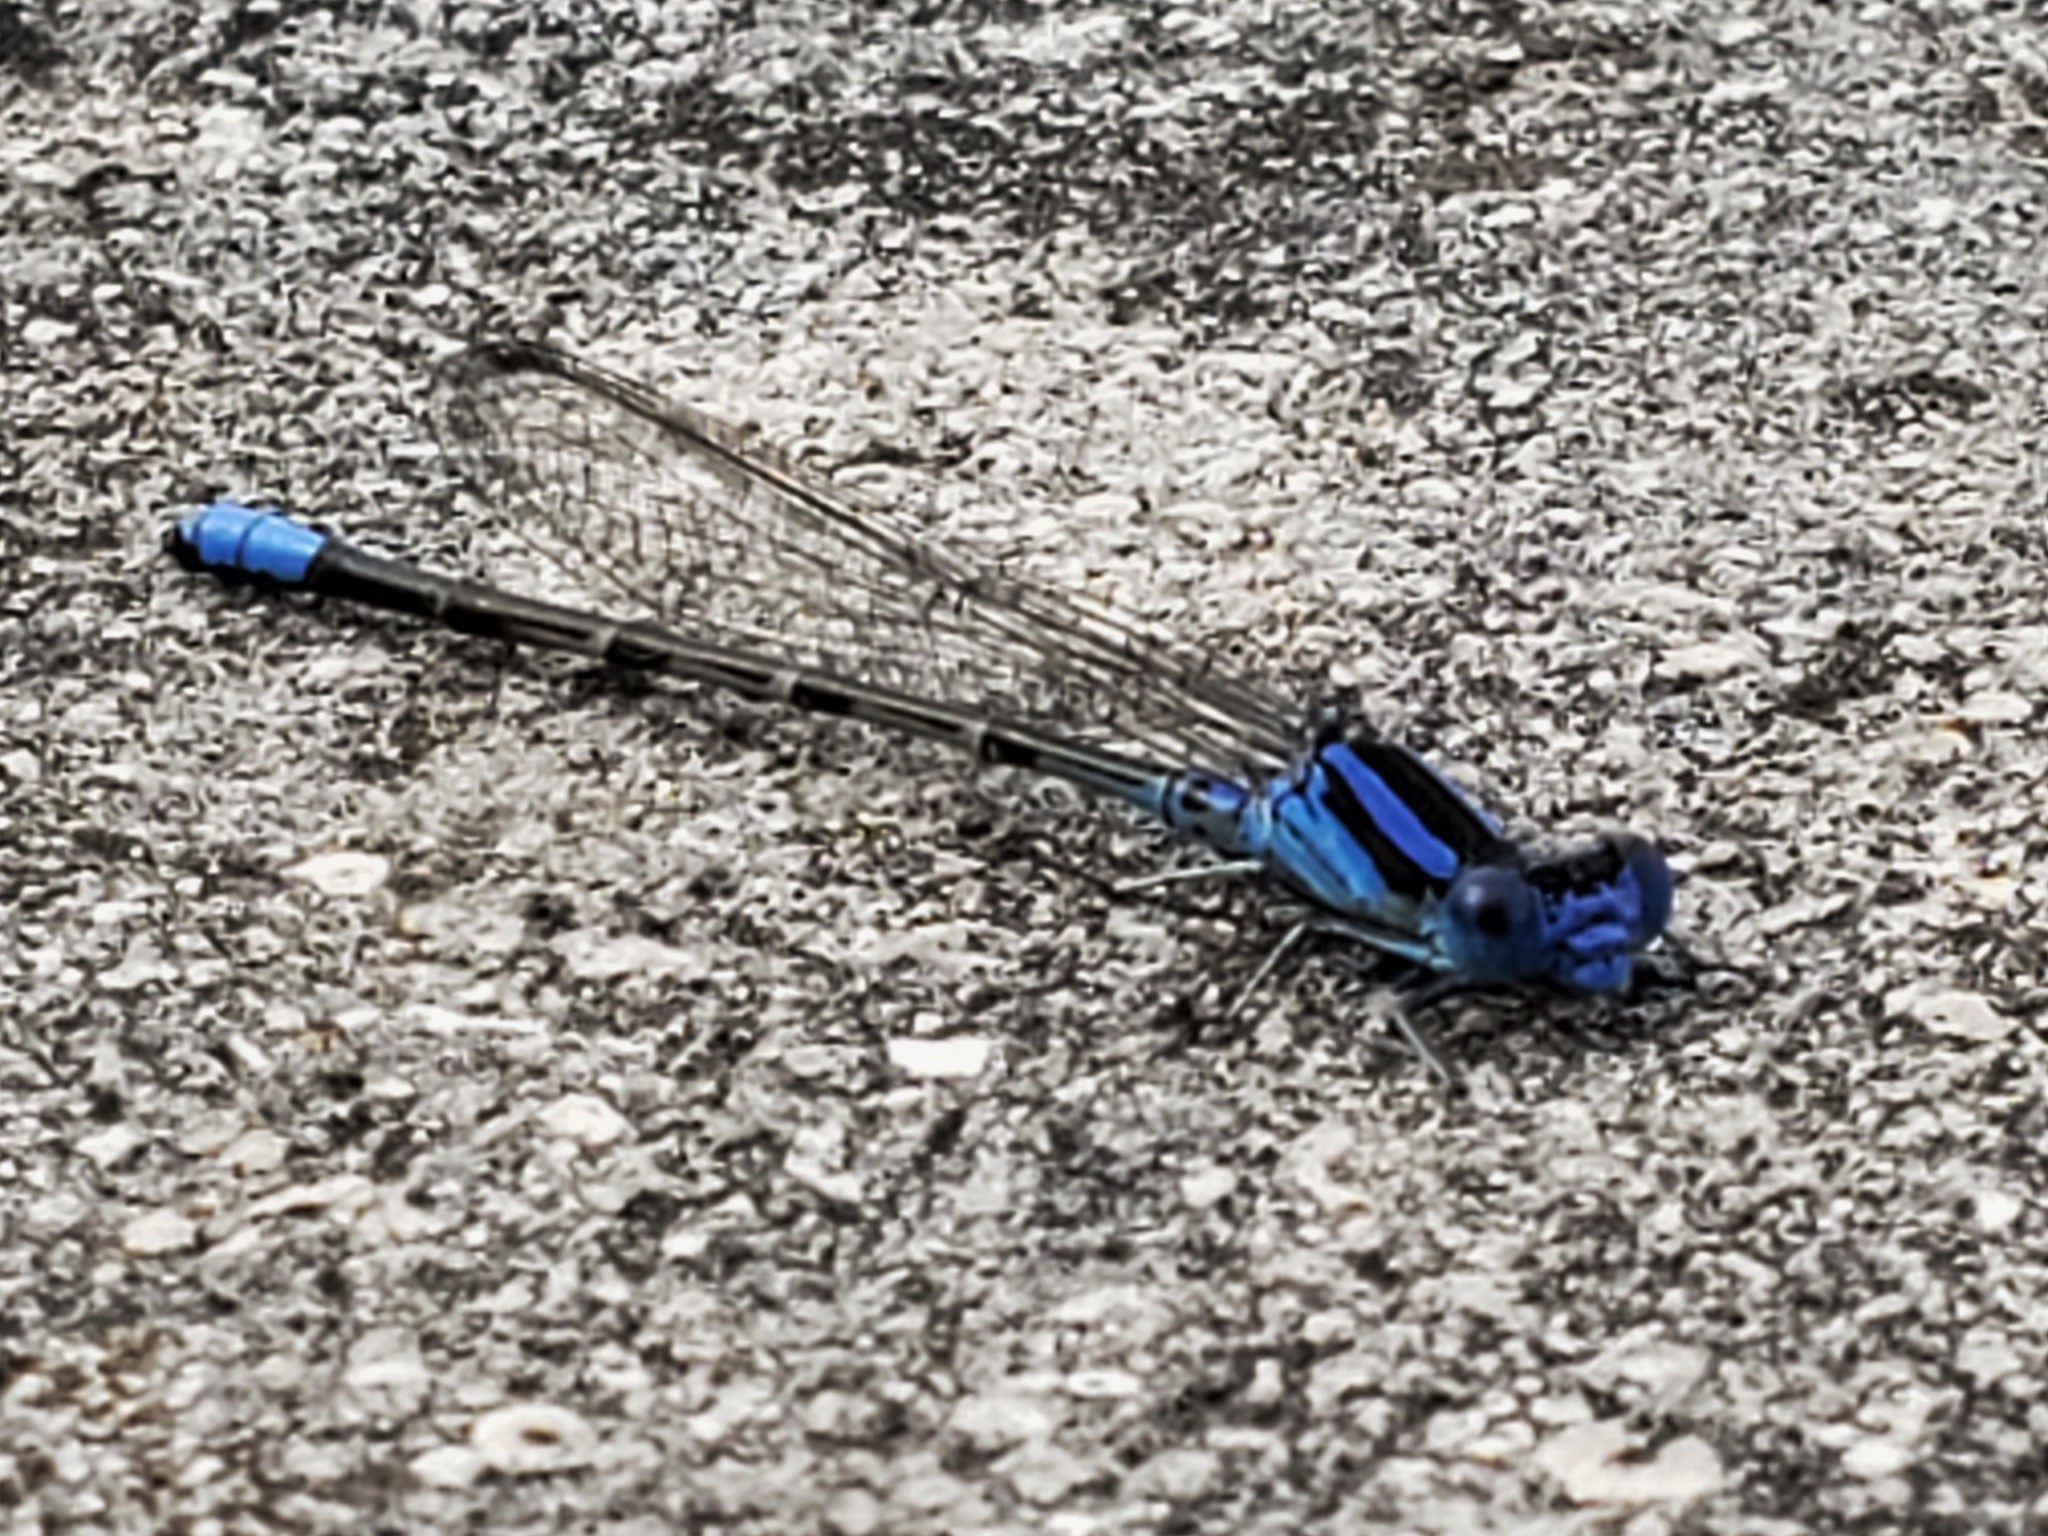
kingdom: Animalia
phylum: Arthropoda
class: Insecta
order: Odonata
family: Coenagrionidae
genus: Argia
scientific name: Argia alberta
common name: Paiute dancer
